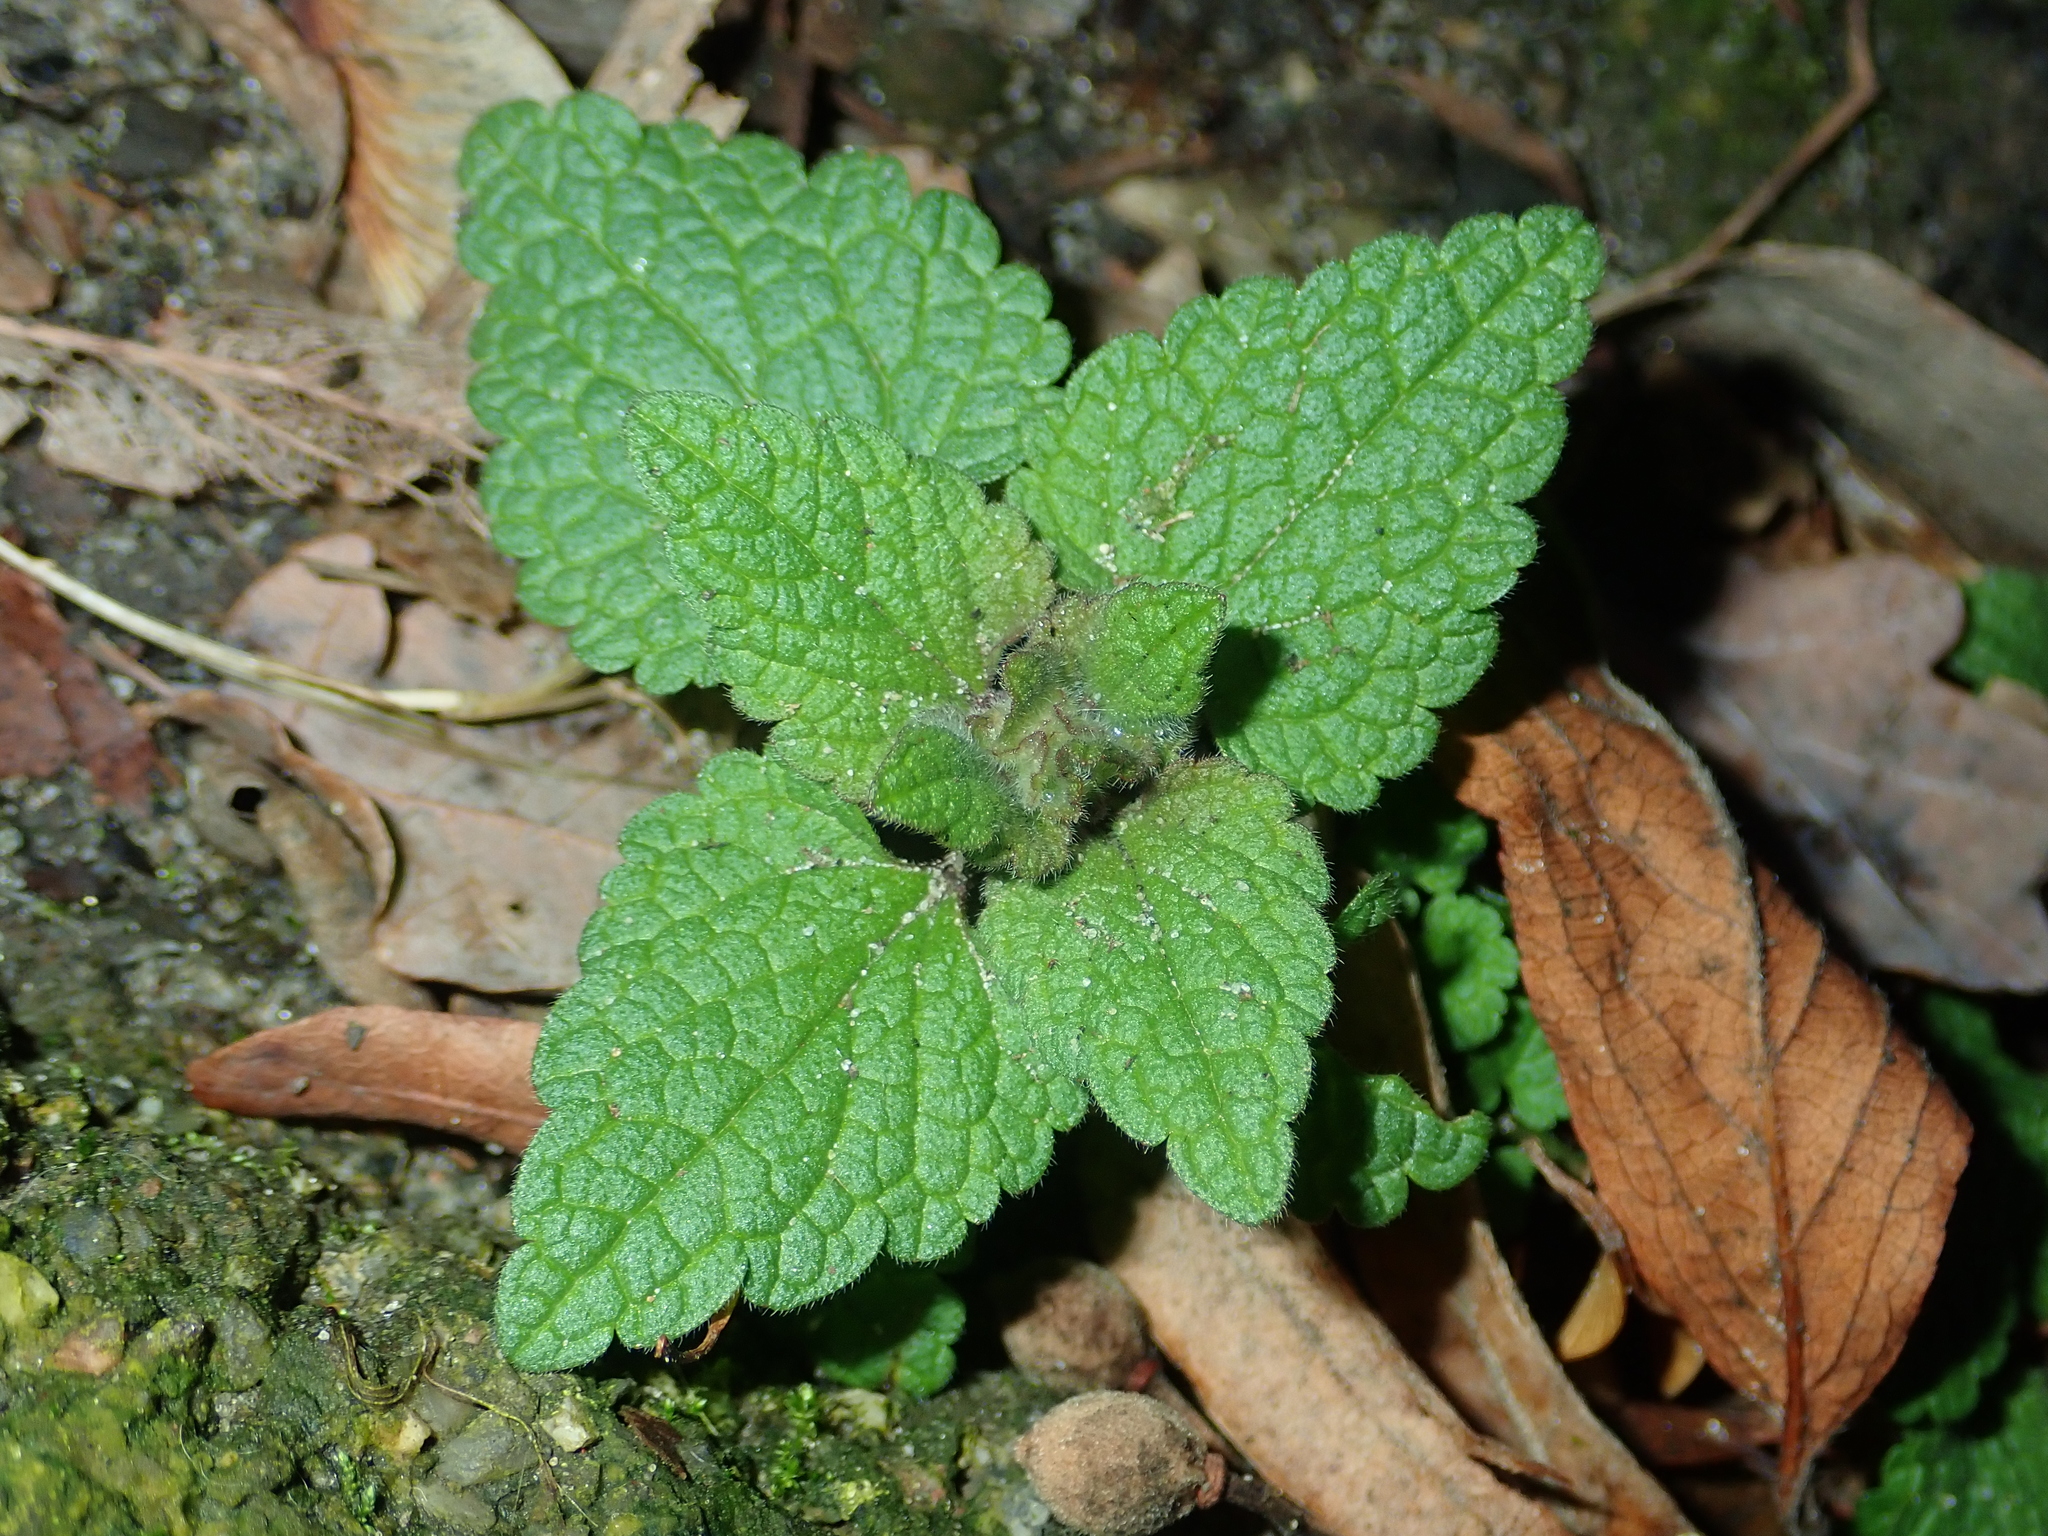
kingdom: Plantae
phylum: Tracheophyta
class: Magnoliopsida
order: Lamiales
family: Lamiaceae
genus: Lamium
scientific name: Lamium purpureum
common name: Red dead-nettle
